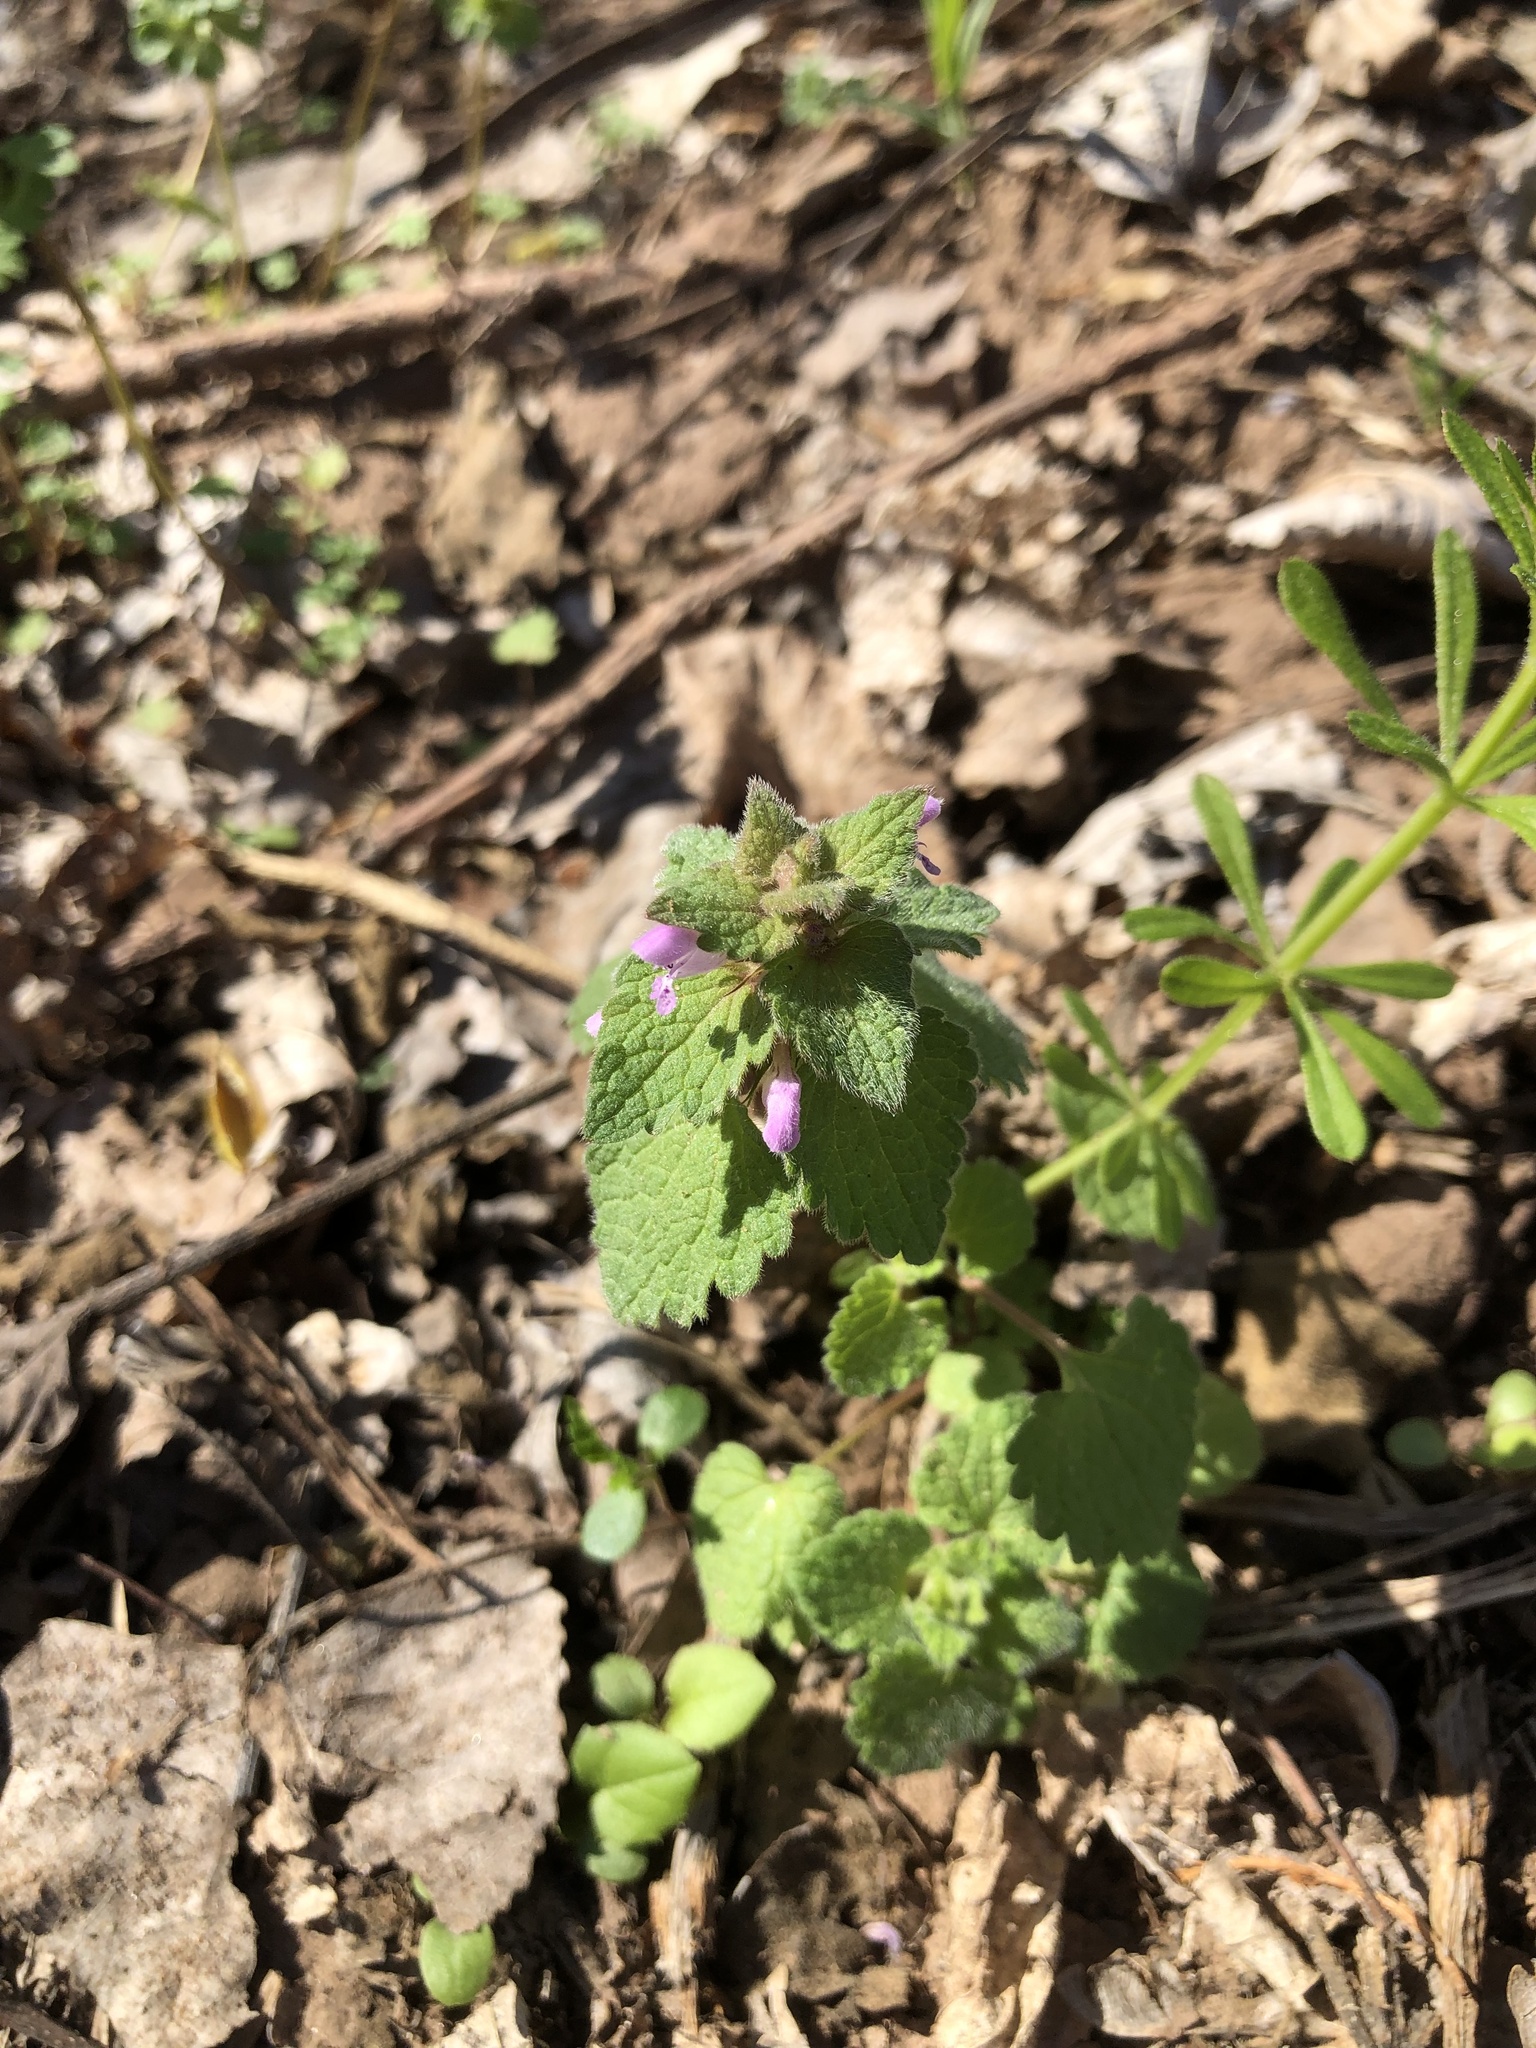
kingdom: Plantae
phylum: Tracheophyta
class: Magnoliopsida
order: Lamiales
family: Lamiaceae
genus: Lamium
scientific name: Lamium purpureum
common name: Red dead-nettle
